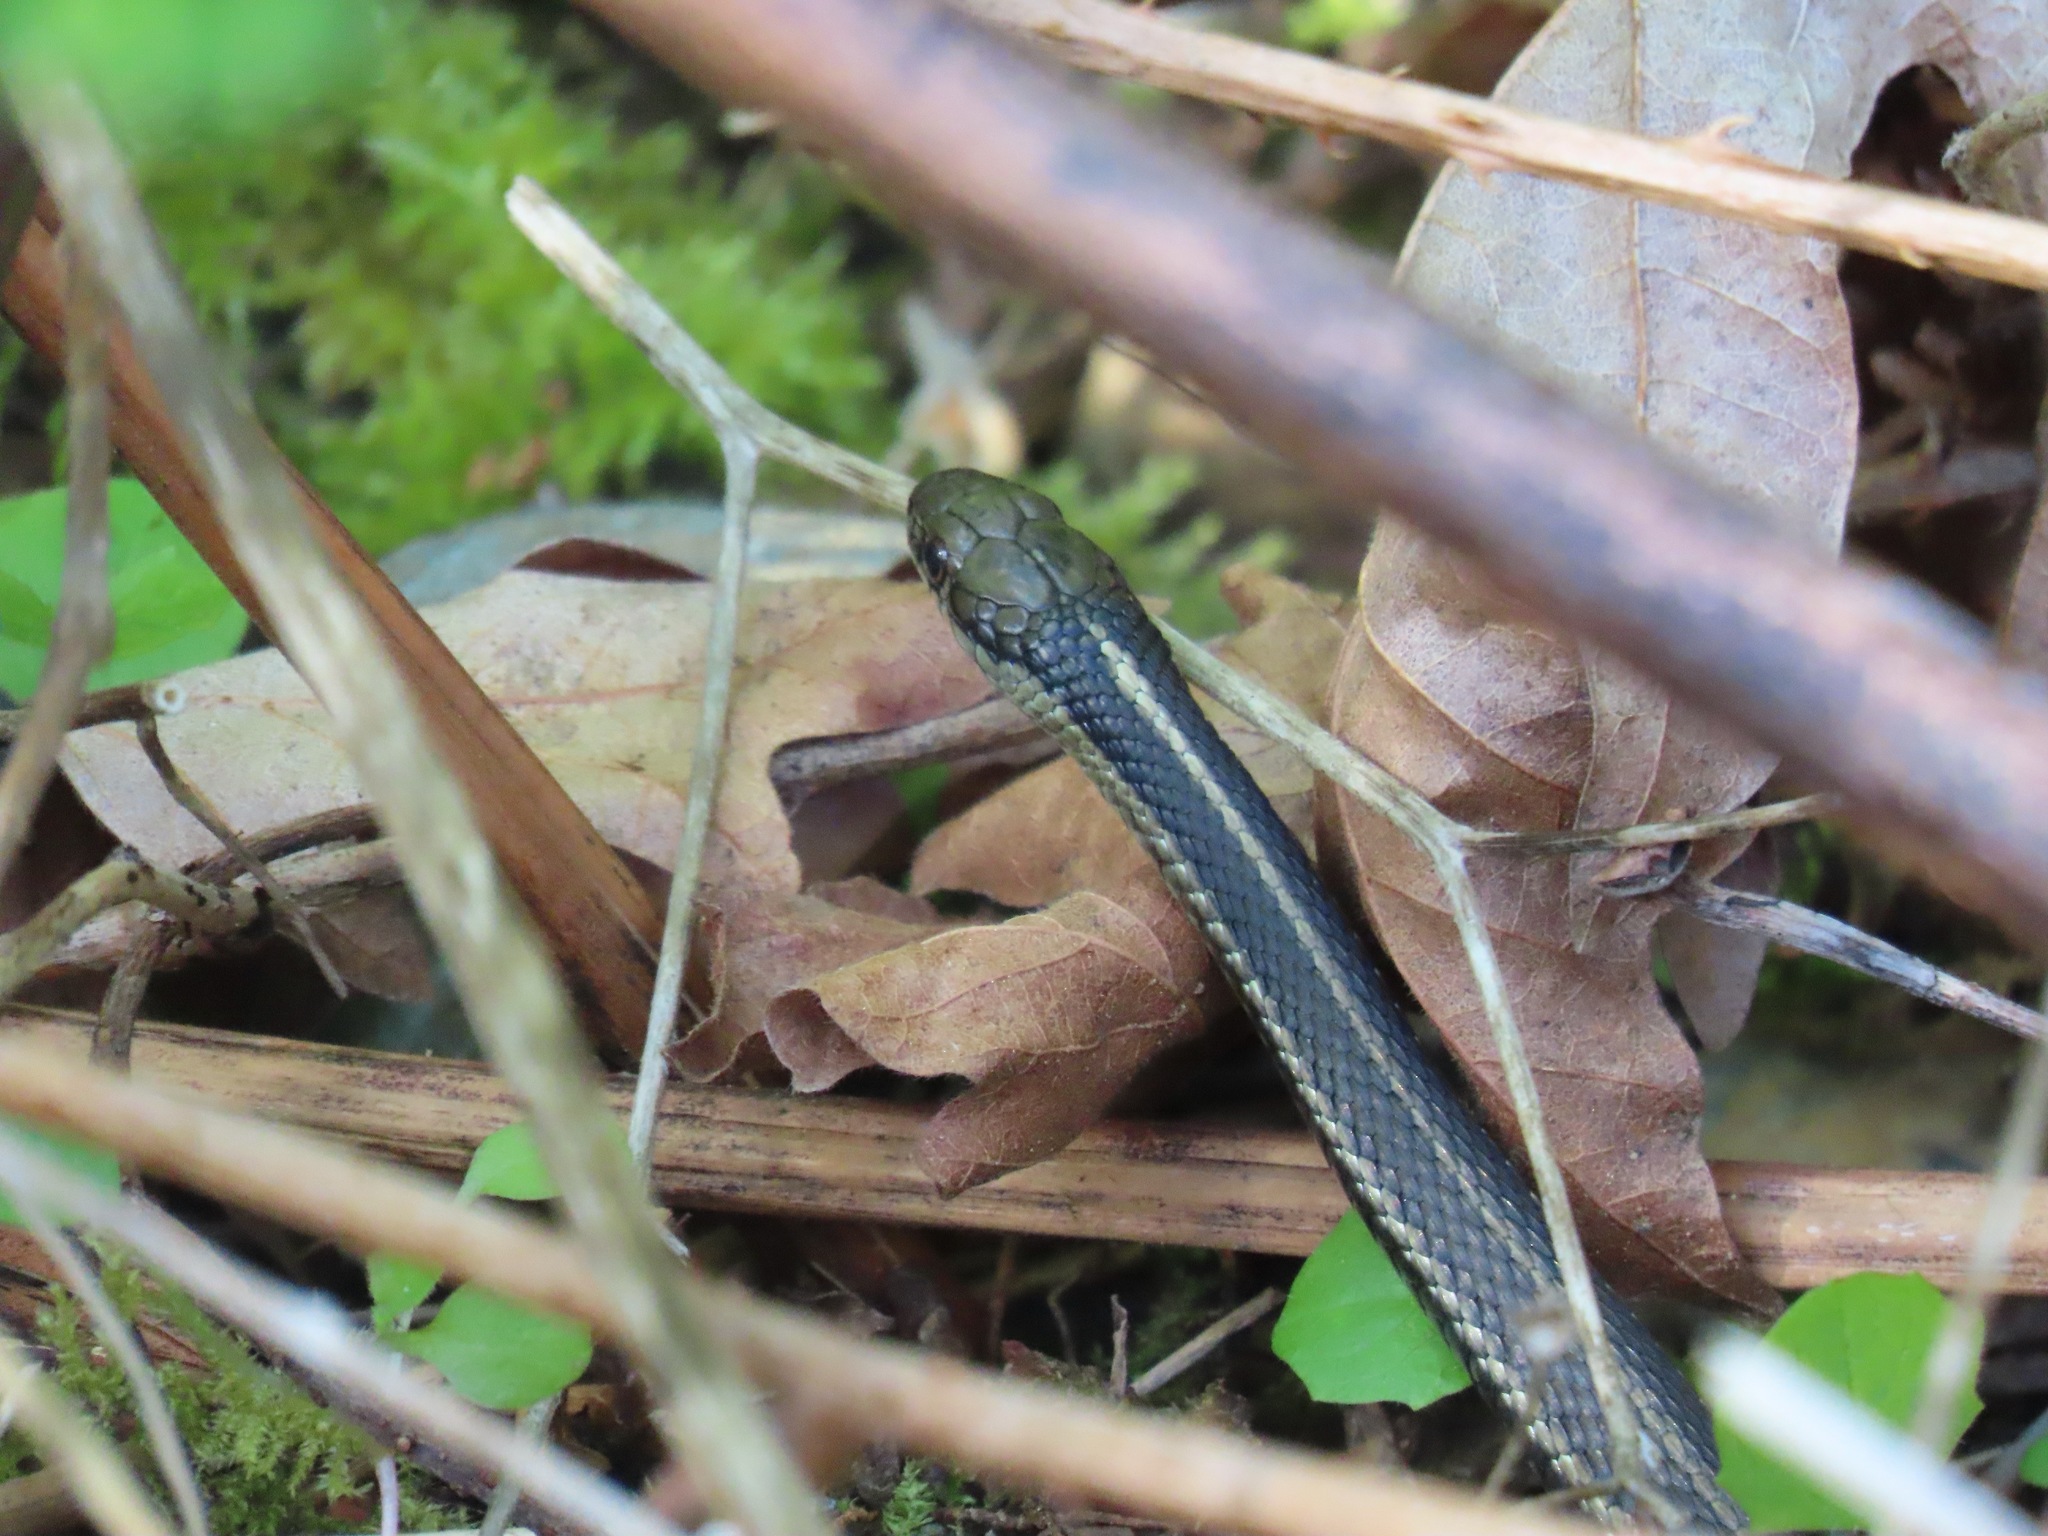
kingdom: Animalia
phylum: Chordata
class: Squamata
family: Colubridae
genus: Thamnophis
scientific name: Thamnophis ordinoides
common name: Northwestern garter snake
